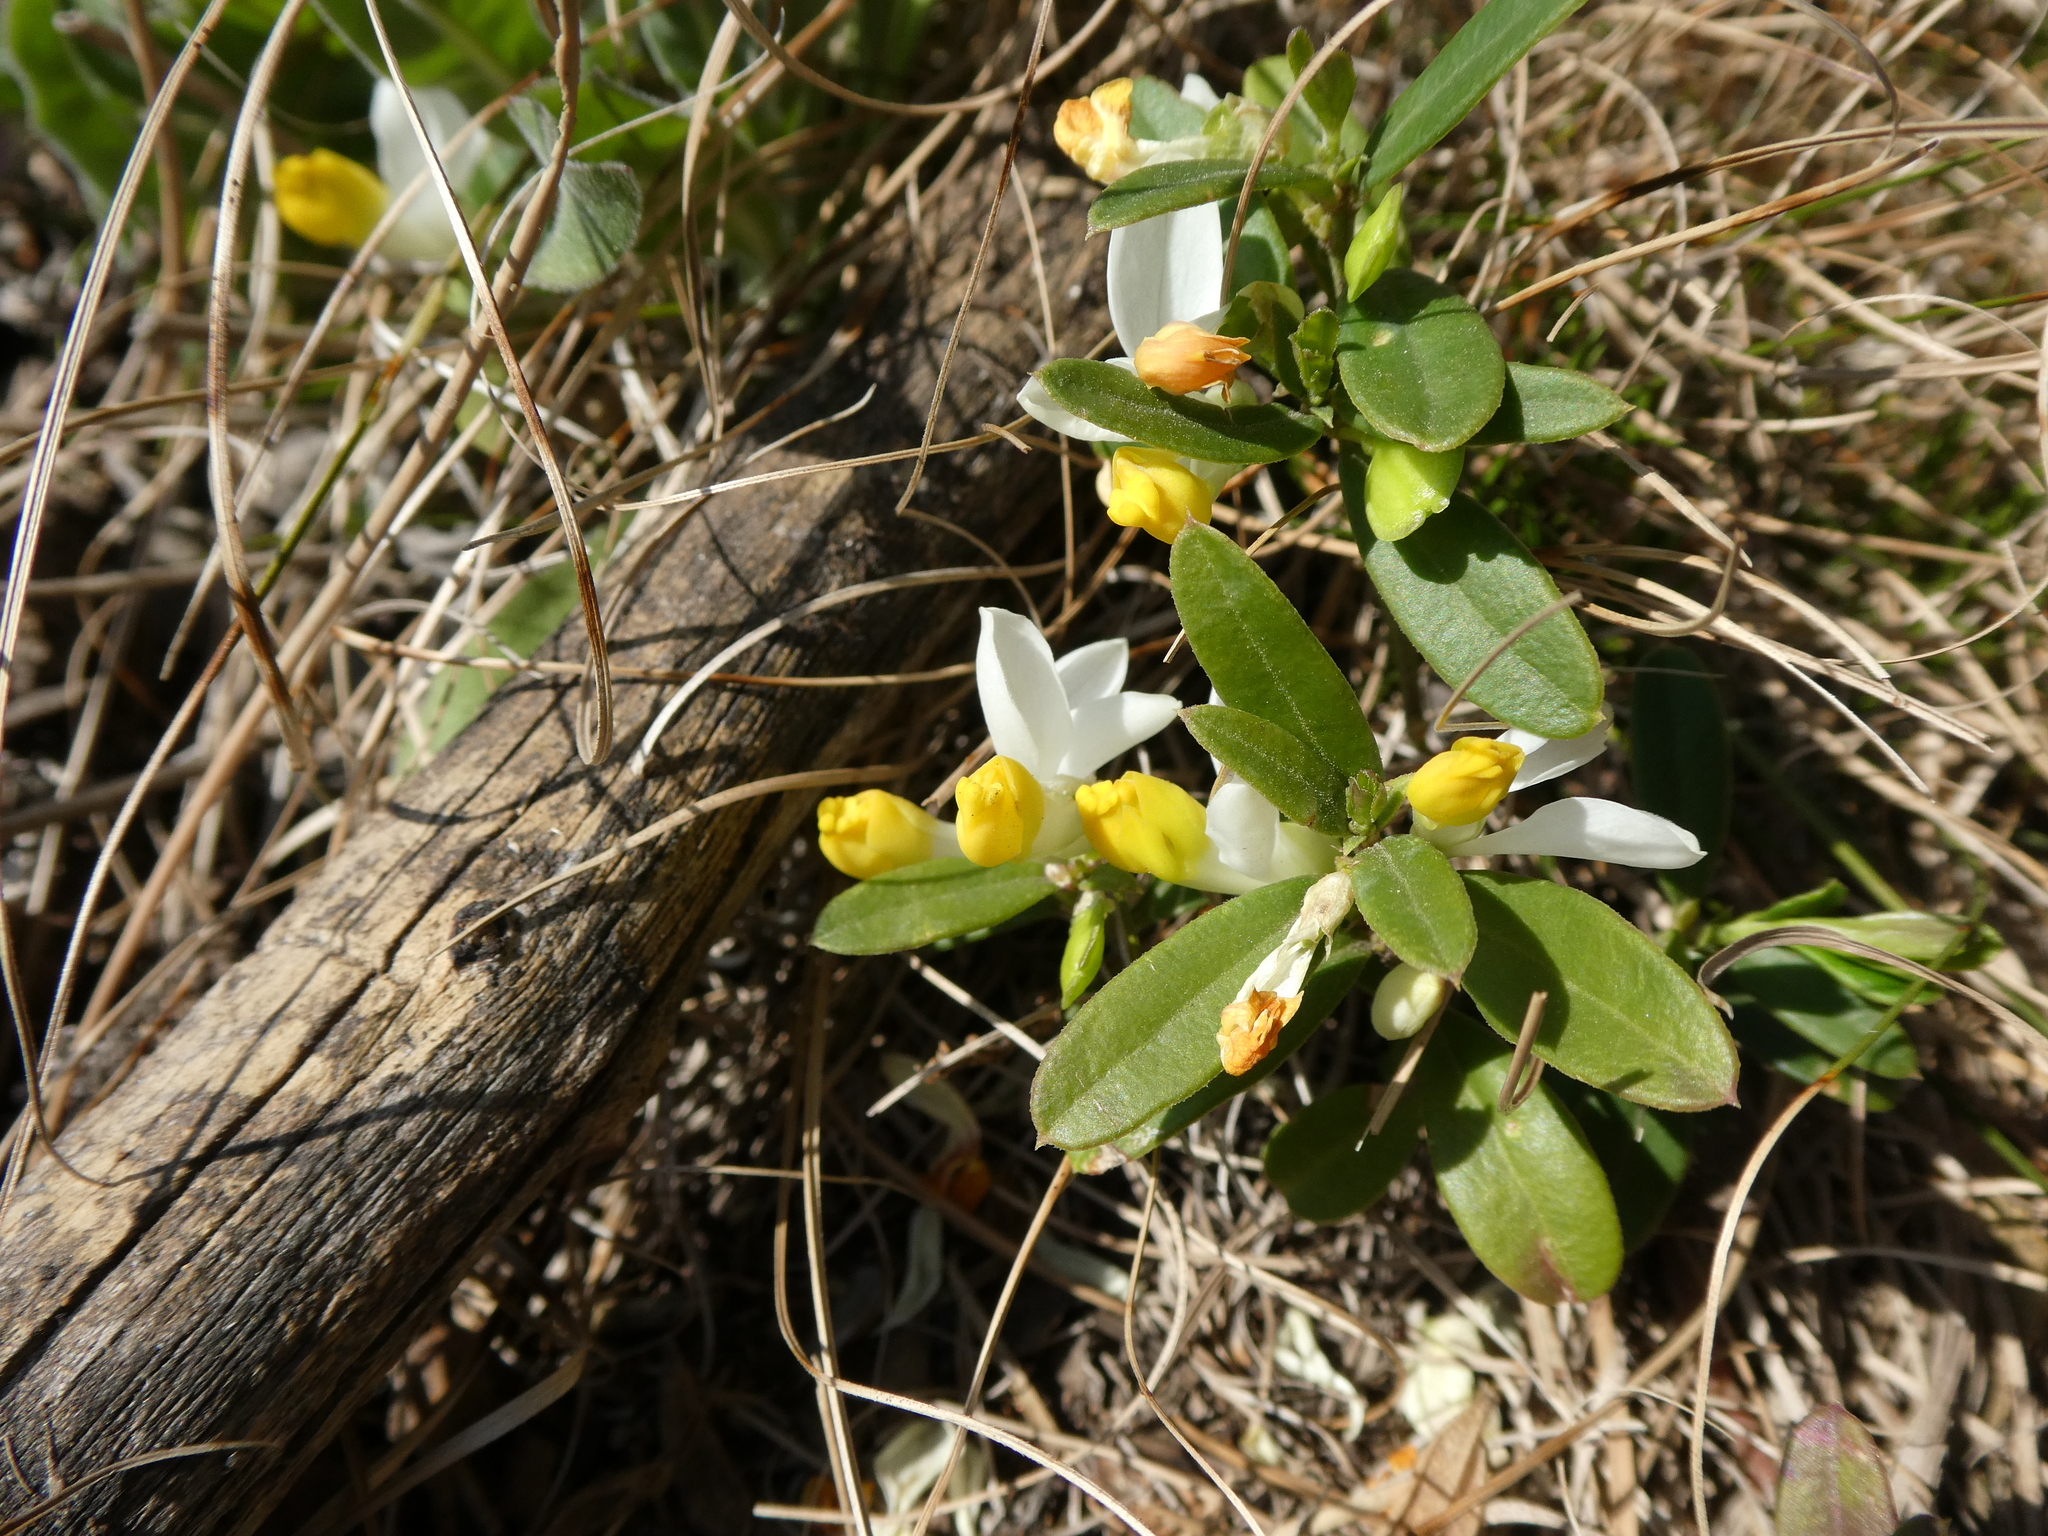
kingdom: Plantae
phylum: Tracheophyta
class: Magnoliopsida
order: Fabales
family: Polygalaceae
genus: Polygaloides
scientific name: Polygaloides chamaebuxus
